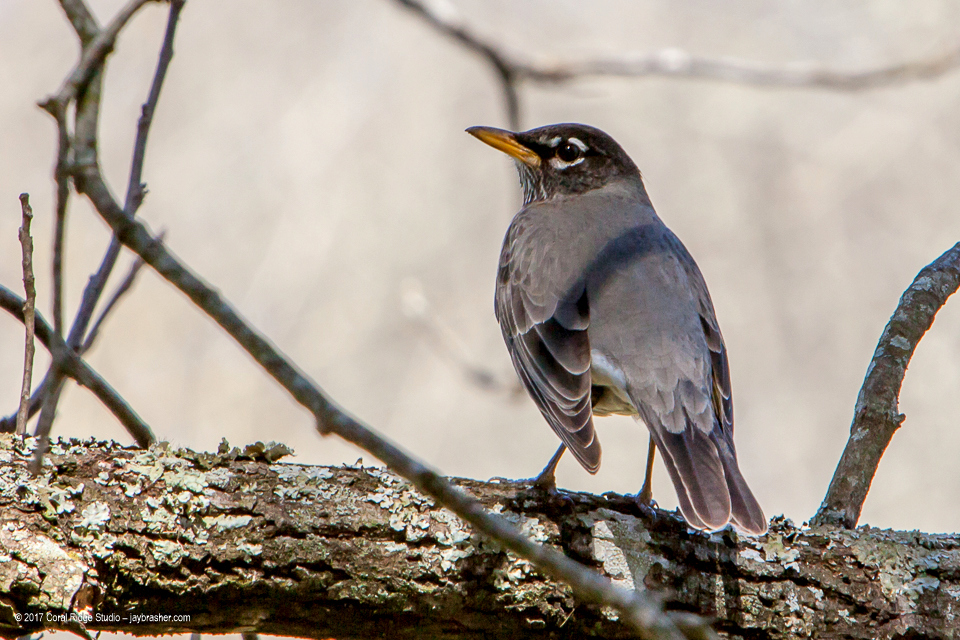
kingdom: Animalia
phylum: Chordata
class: Aves
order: Passeriformes
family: Turdidae
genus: Turdus
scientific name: Turdus migratorius
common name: American robin
